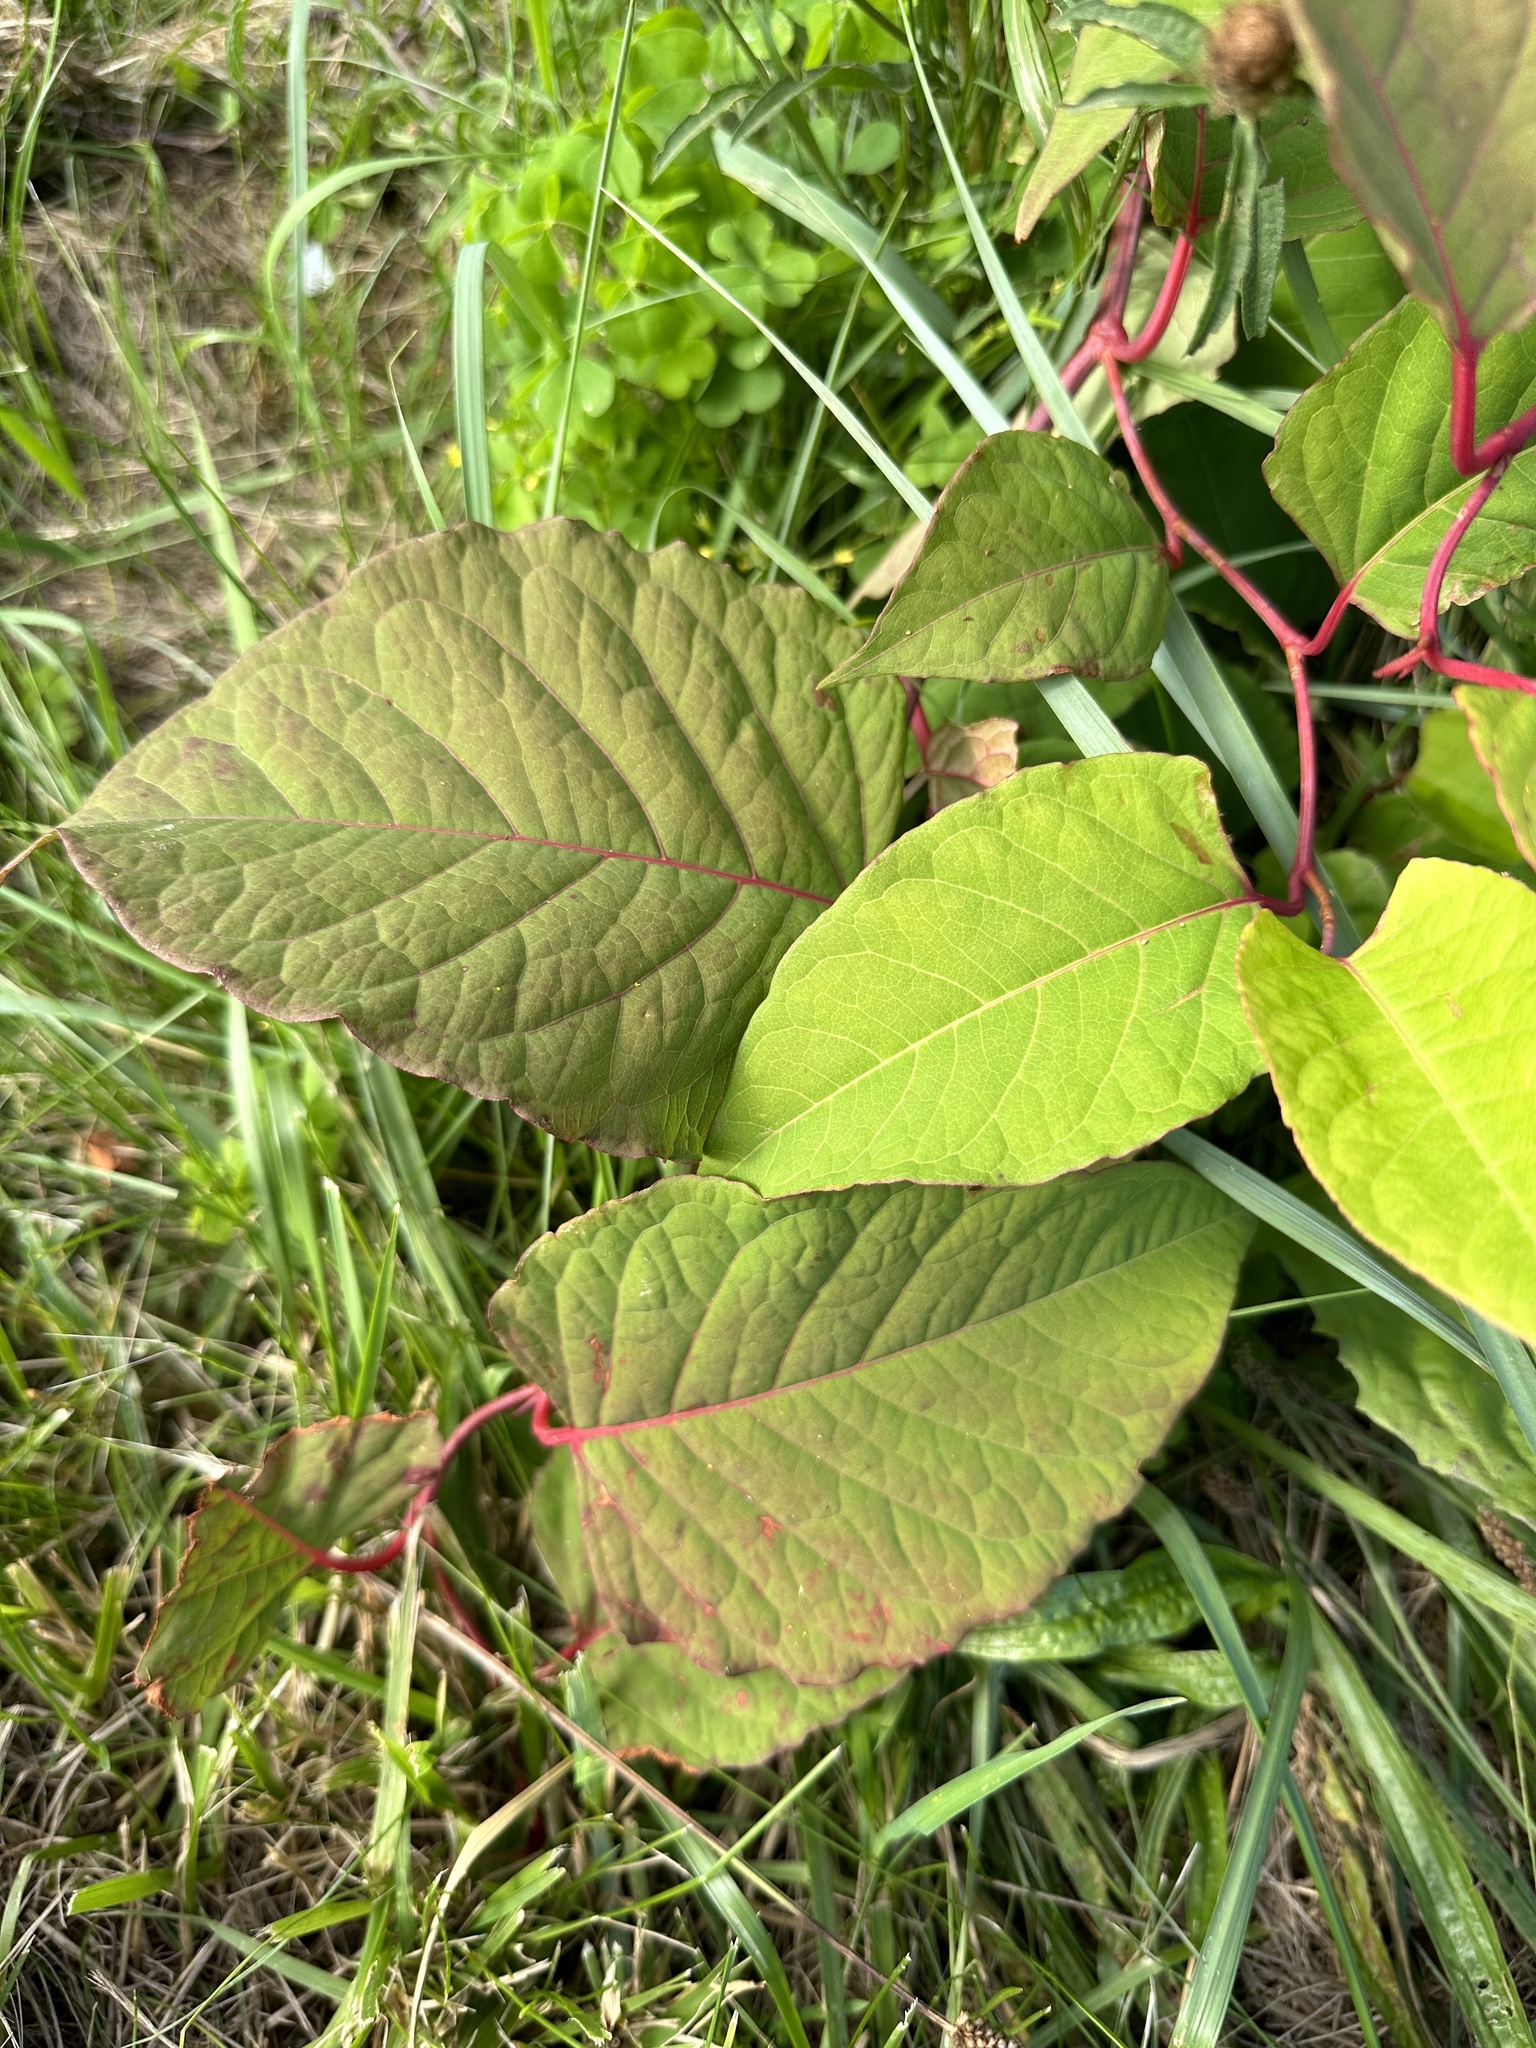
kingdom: Plantae
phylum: Tracheophyta
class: Magnoliopsida
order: Caryophyllales
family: Polygonaceae
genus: Reynoutria
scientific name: Reynoutria japonica
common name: Japanese knotweed
